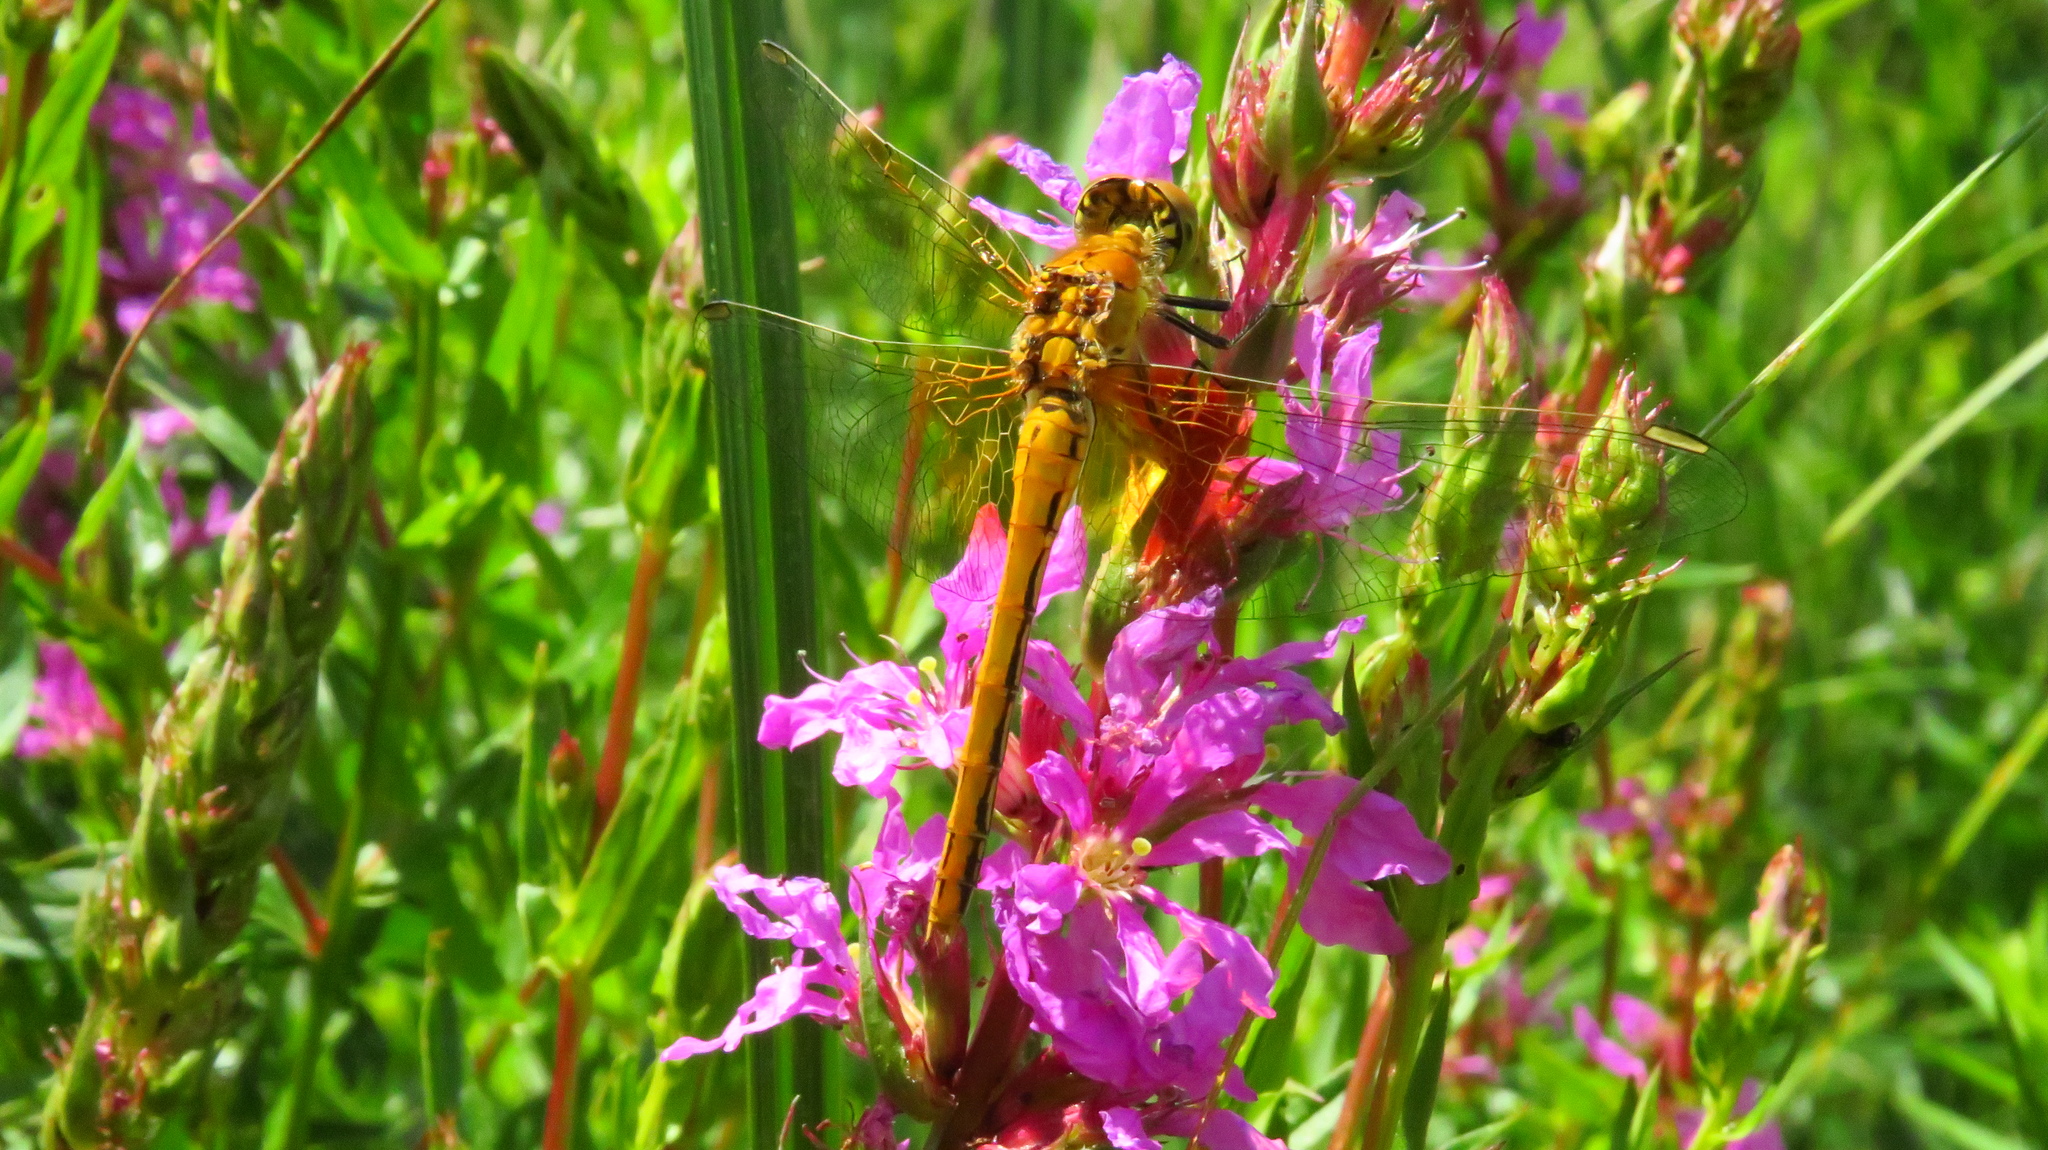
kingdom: Animalia
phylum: Arthropoda
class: Insecta
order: Odonata
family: Libellulidae
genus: Sympetrum
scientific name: Sympetrum flaveolum
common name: Yellow-winged darter
